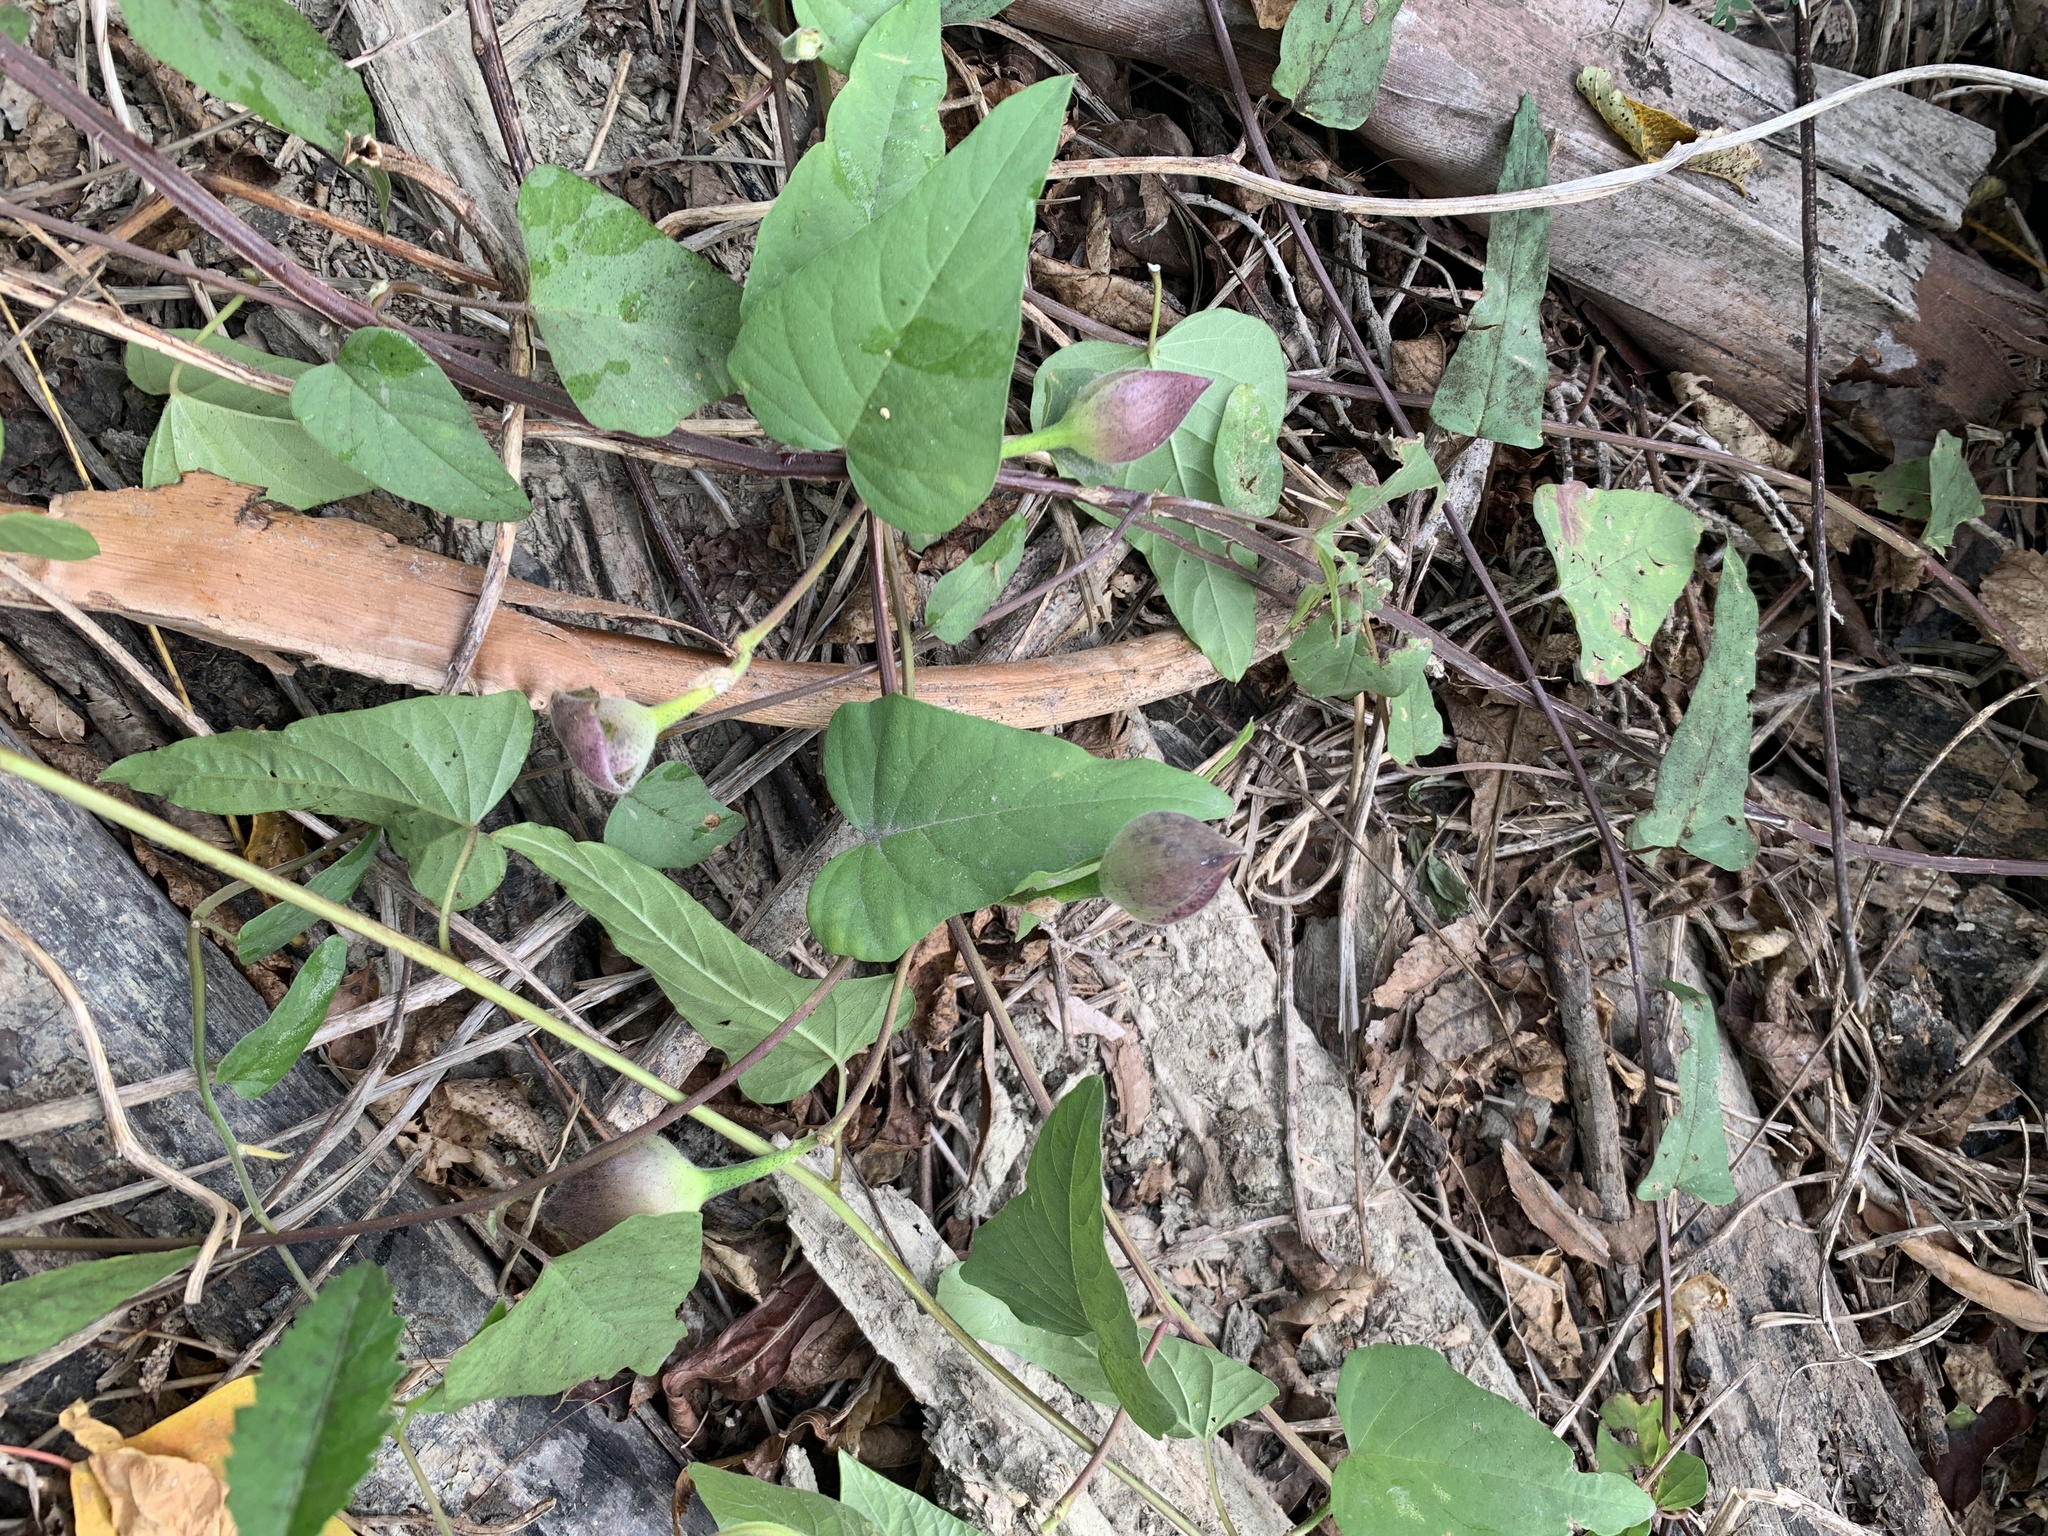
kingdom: Plantae
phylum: Tracheophyta
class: Magnoliopsida
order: Solanales
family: Convolvulaceae
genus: Operculina
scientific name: Operculina turpethum
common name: Transparent wood-rose
